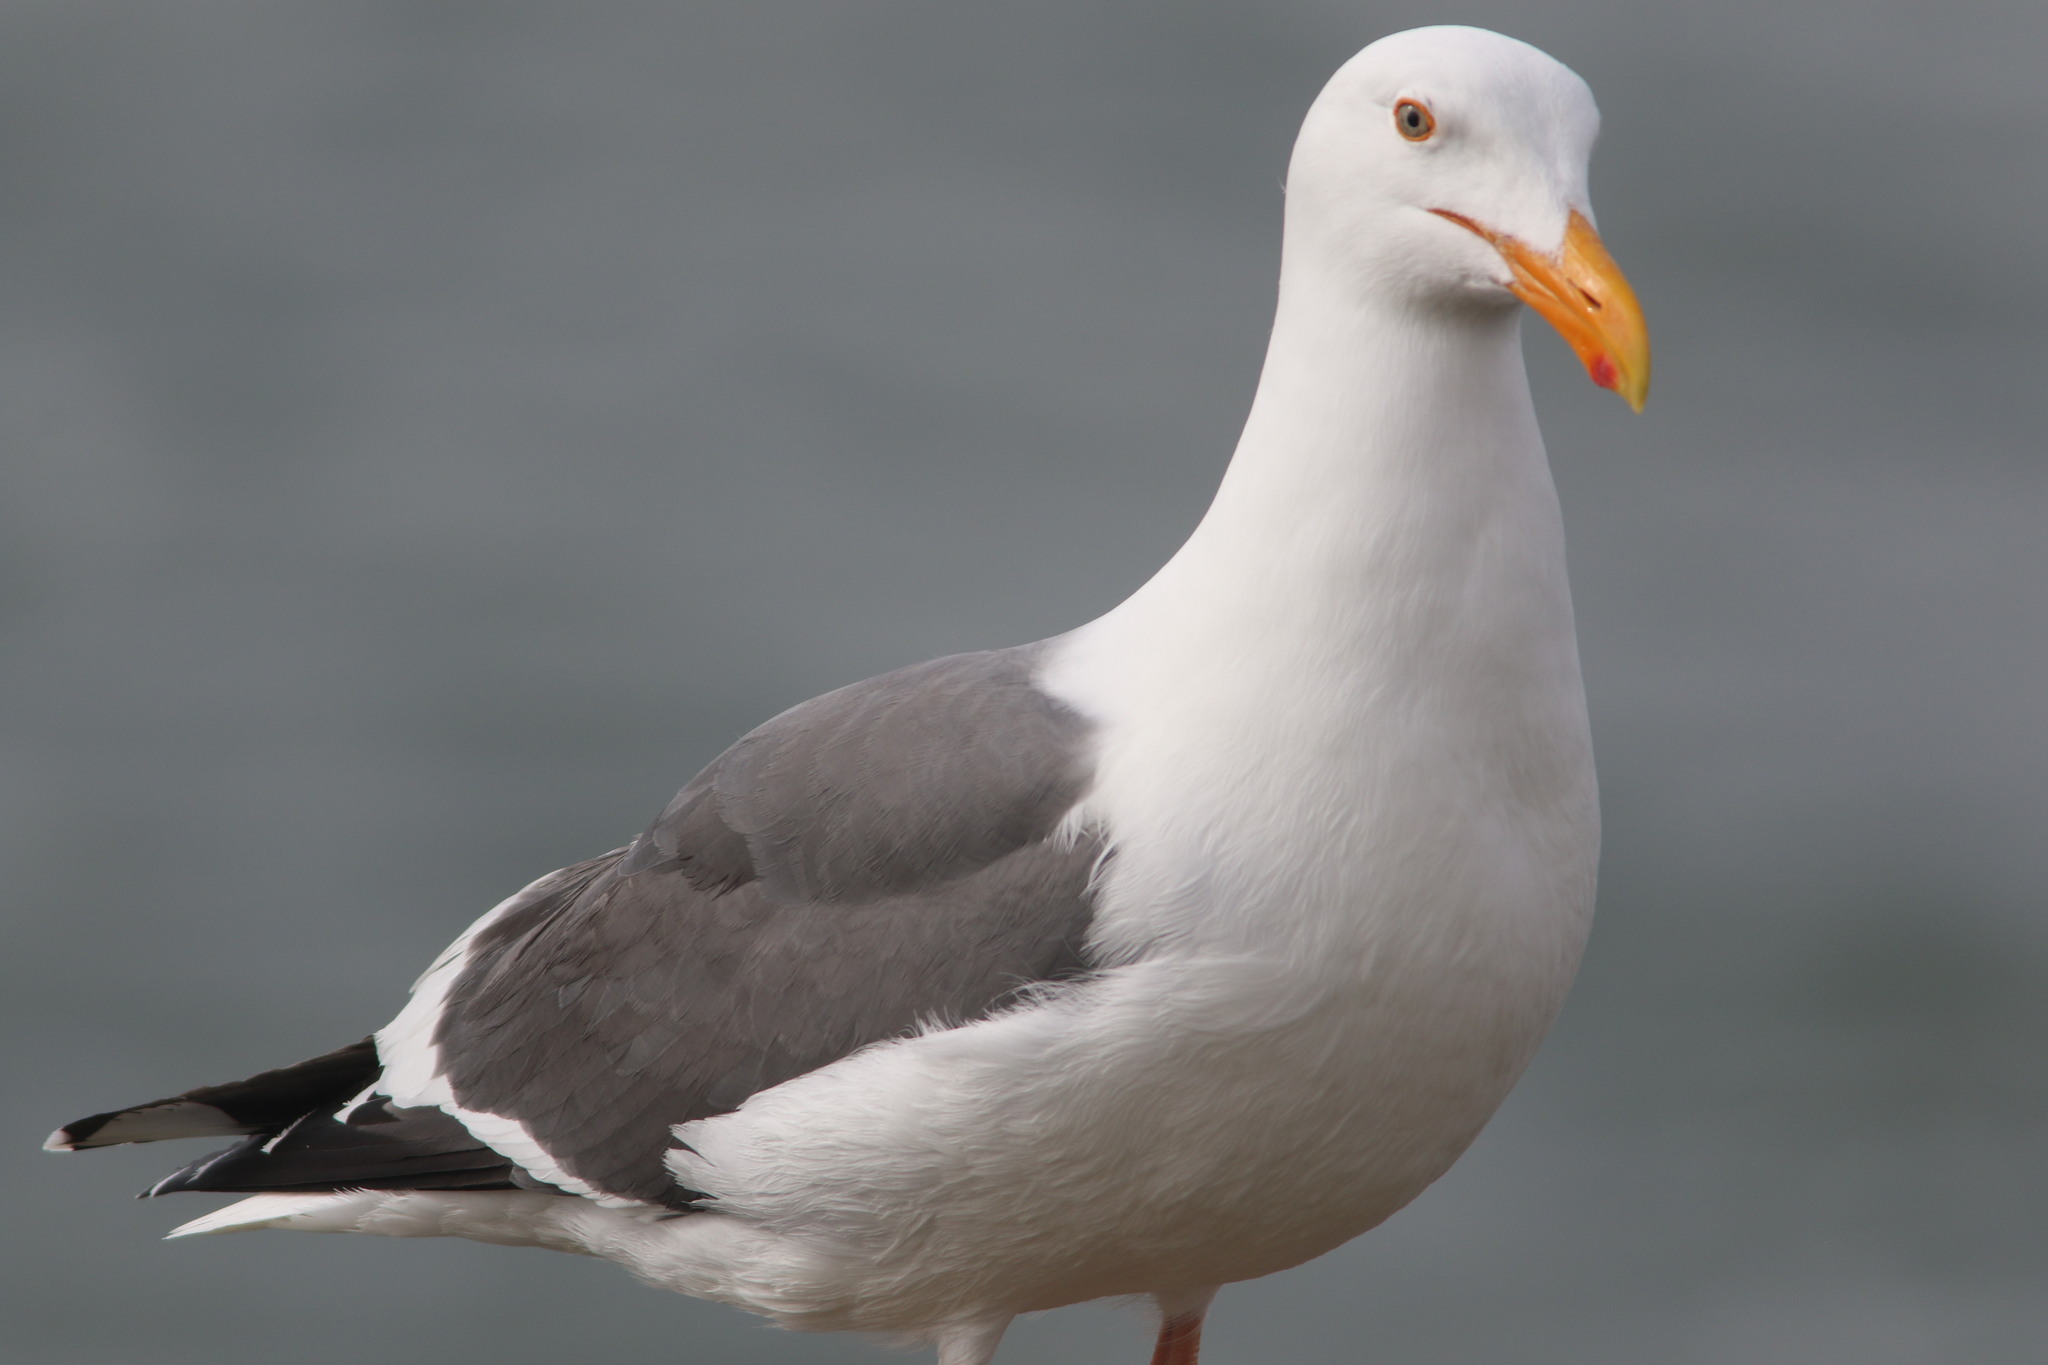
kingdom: Animalia
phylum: Chordata
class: Aves
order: Charadriiformes
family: Laridae
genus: Larus
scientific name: Larus occidentalis
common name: Western gull
